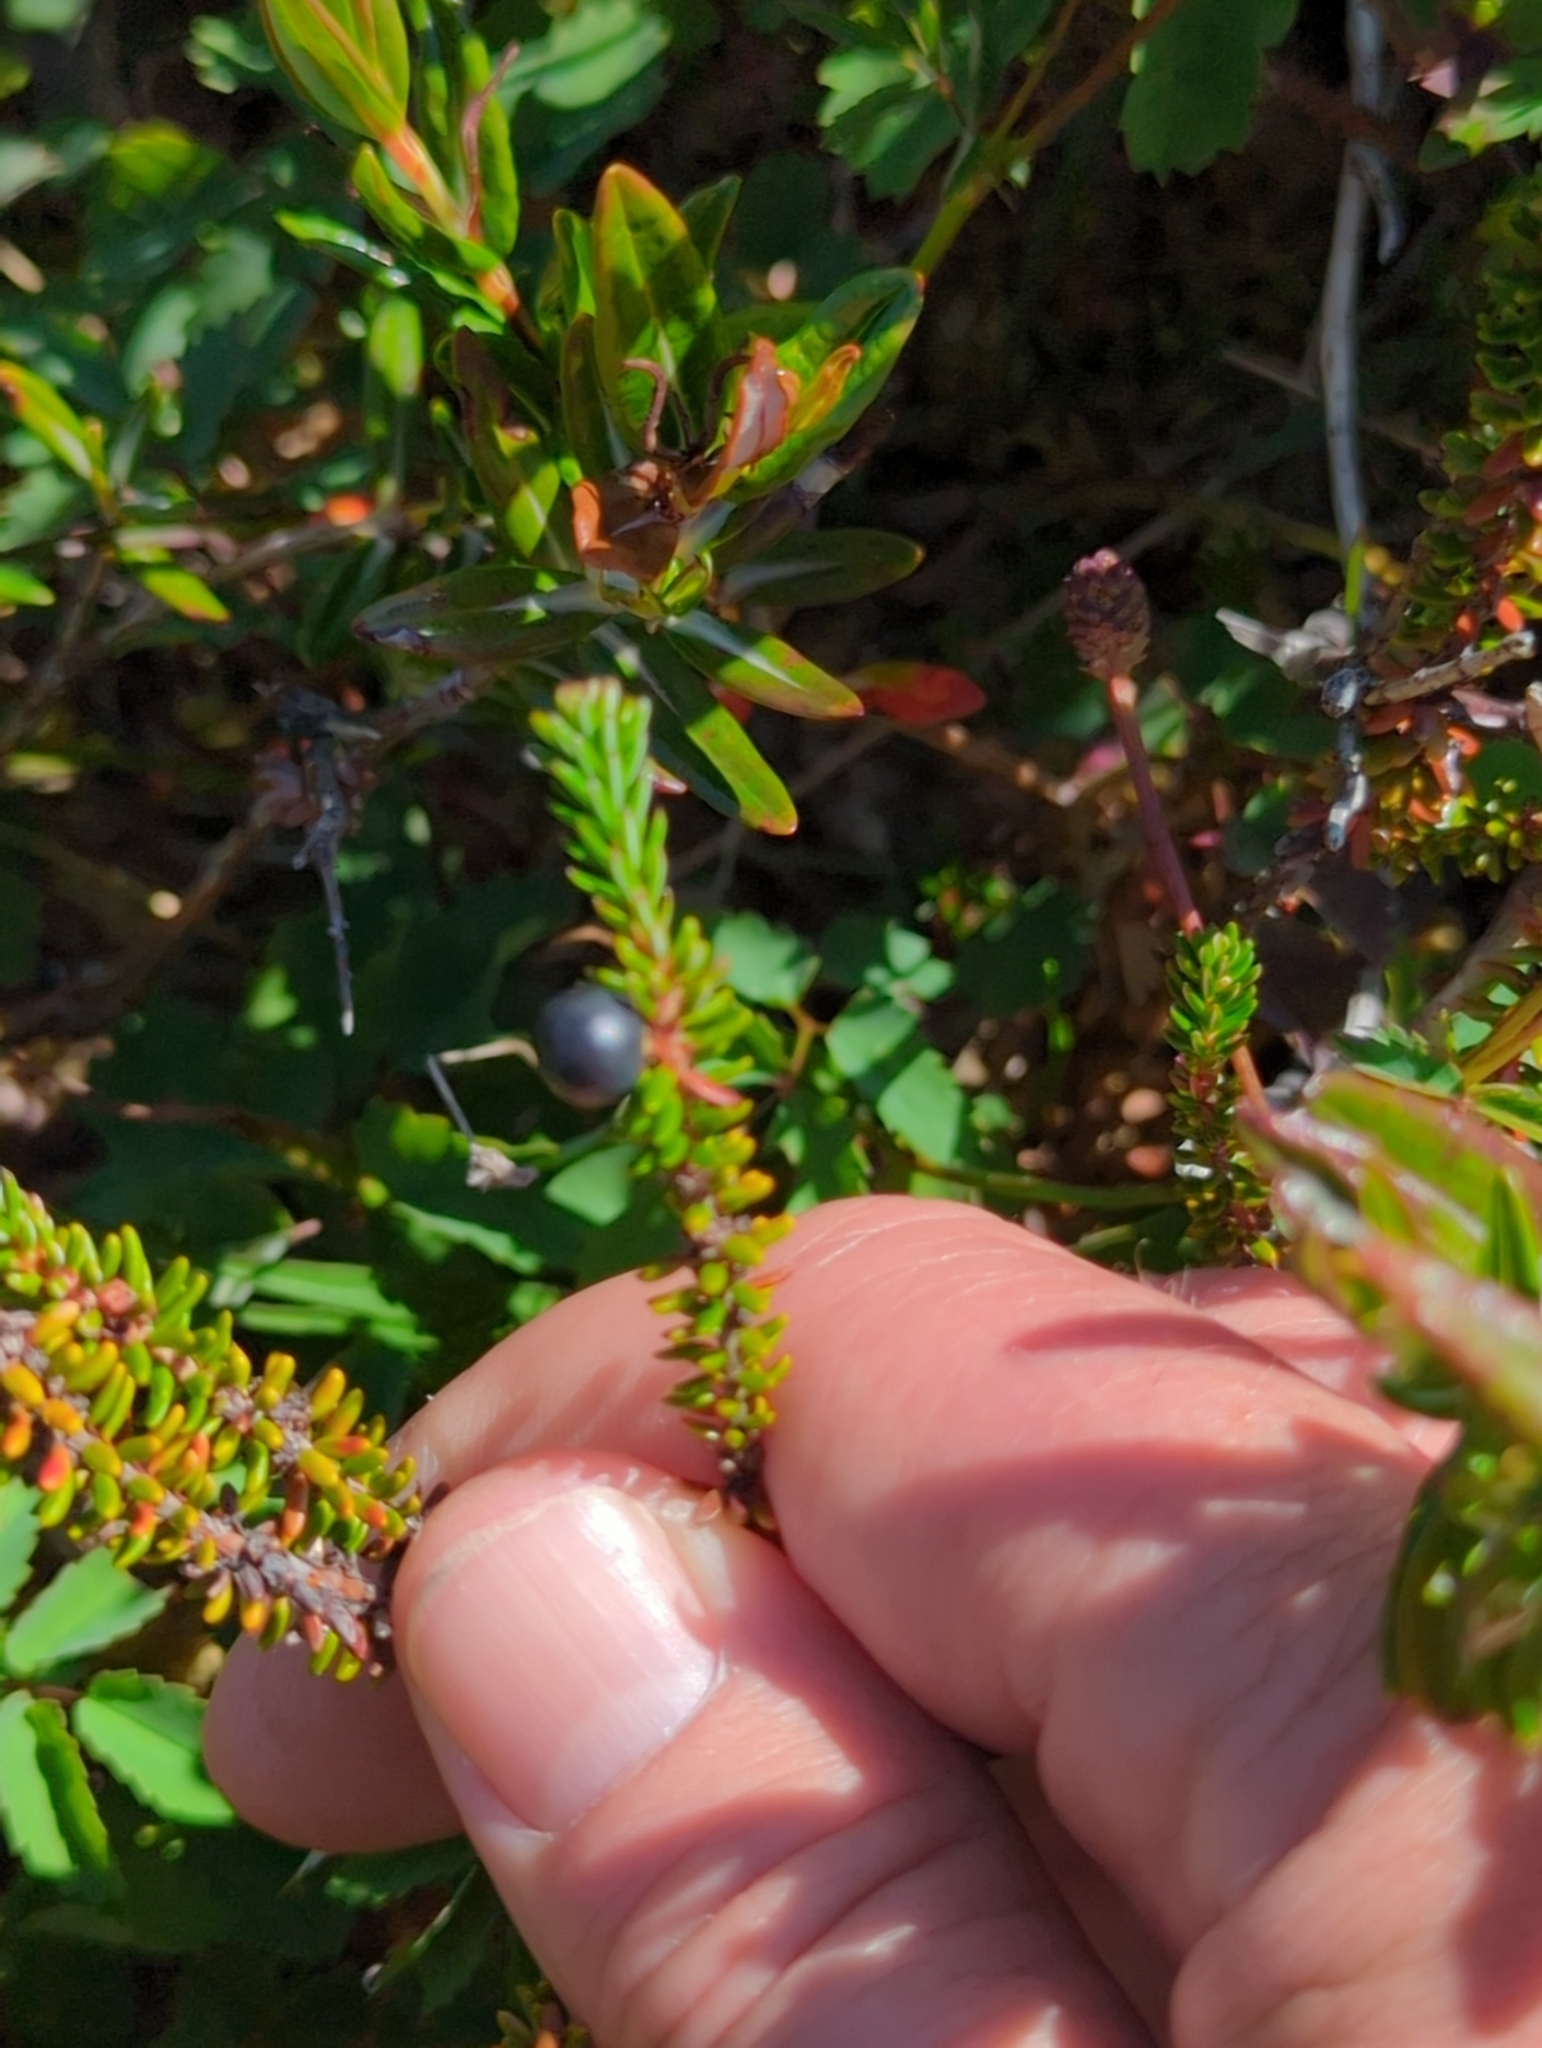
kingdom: Plantae
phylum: Tracheophyta
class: Magnoliopsida
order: Ericales
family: Ericaceae
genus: Empetrum
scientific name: Empetrum nigrum
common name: Black crowberry
